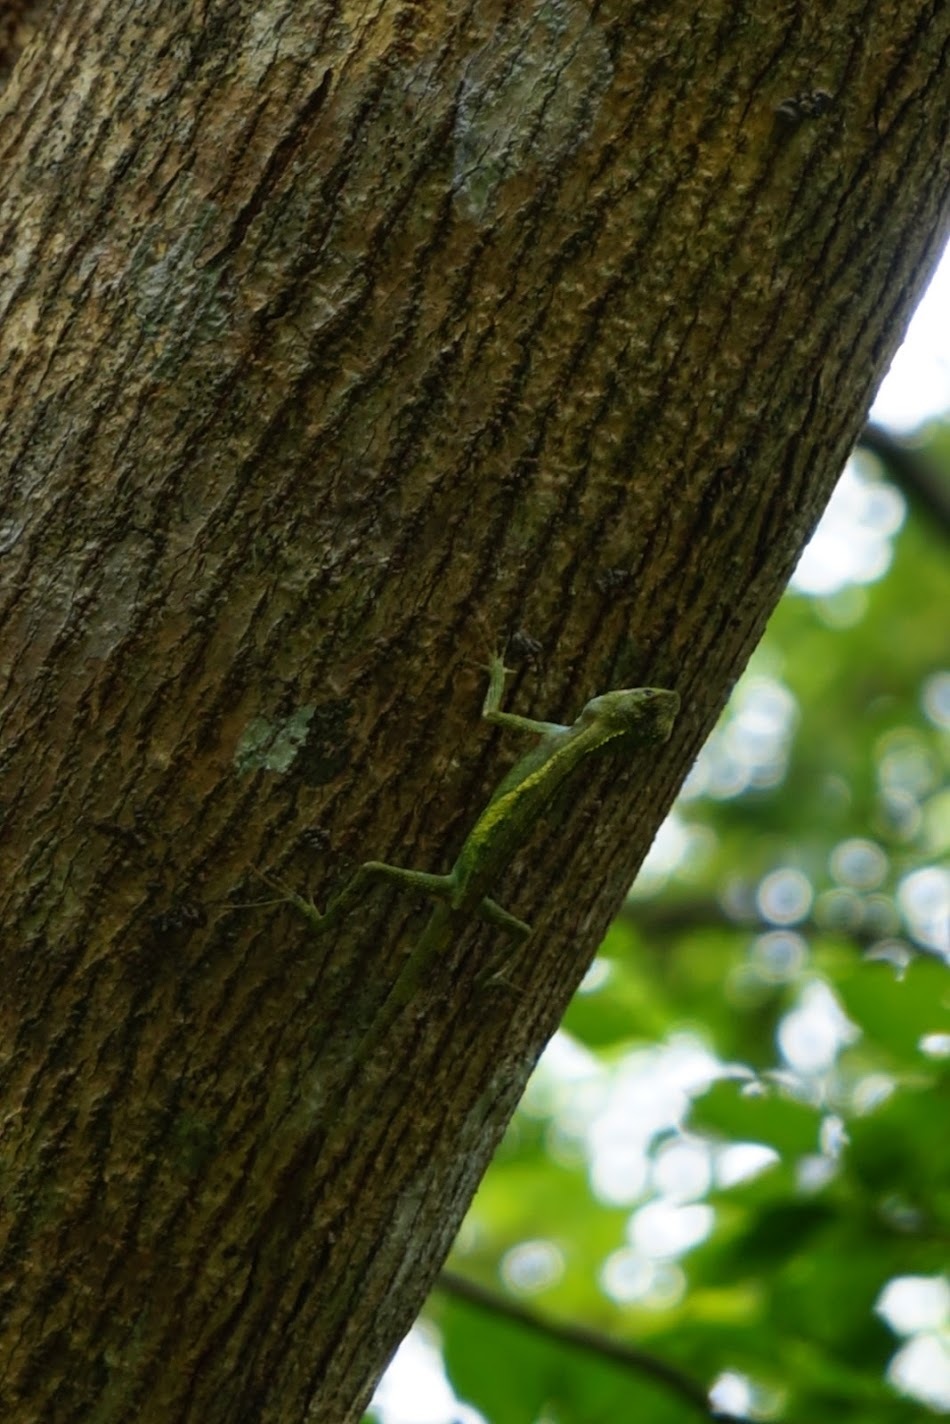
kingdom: Fungi
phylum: Basidiomycota
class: Agaricomycetes
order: Boletales
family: Diplocystidiaceae
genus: Diploderma
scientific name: Diploderma polygonatum
